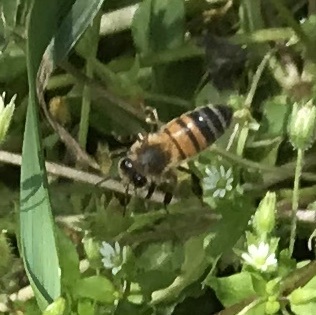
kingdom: Animalia
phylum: Arthropoda
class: Insecta
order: Hymenoptera
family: Apidae
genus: Apis
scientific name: Apis mellifera
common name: Honey bee
